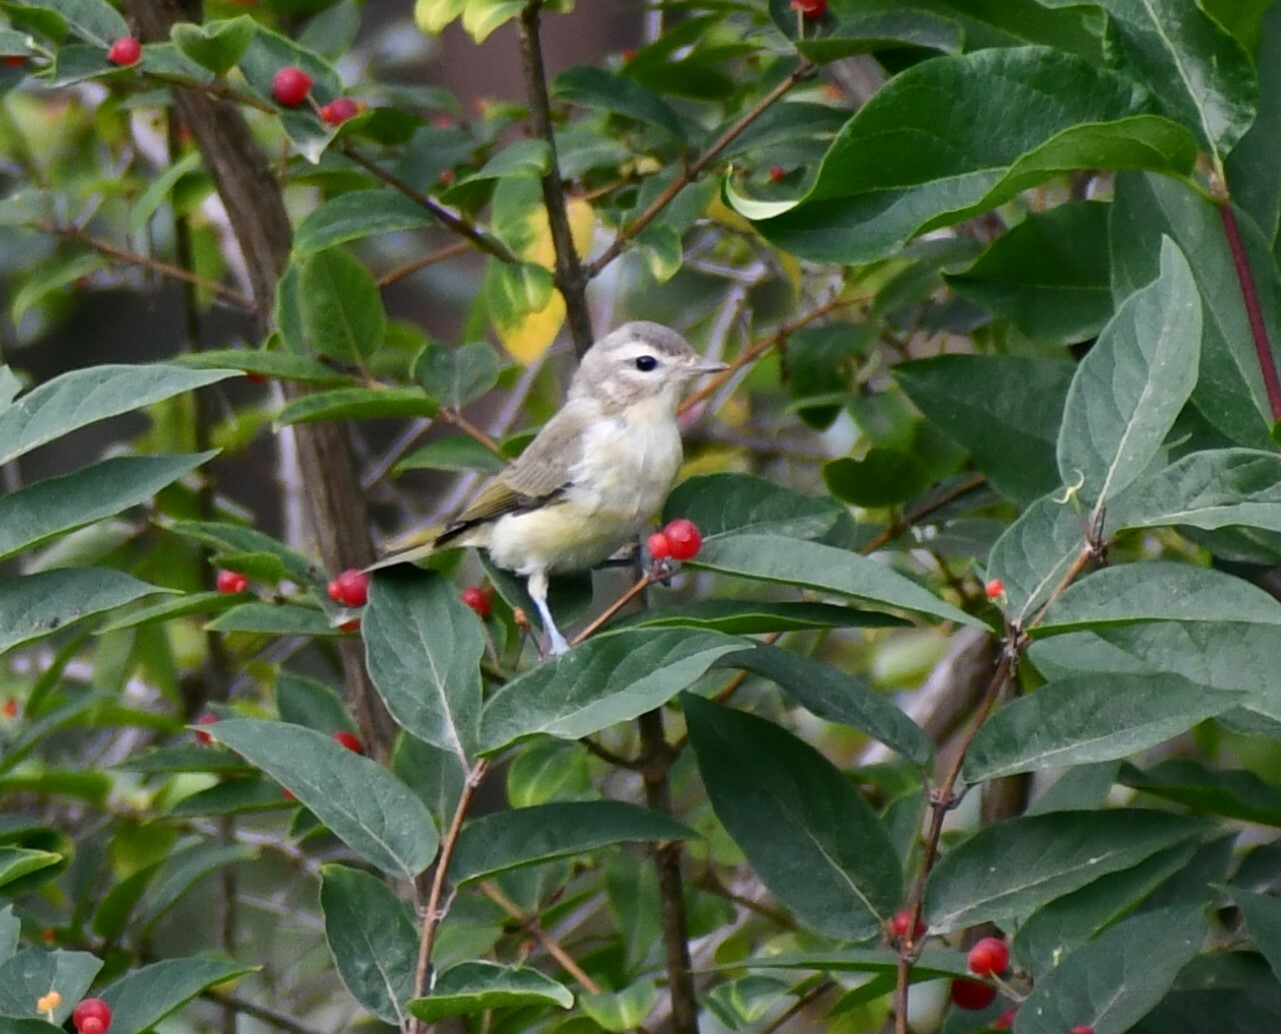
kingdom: Animalia
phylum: Chordata
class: Aves
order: Passeriformes
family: Vireonidae
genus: Vireo
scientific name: Vireo gilvus
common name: Warbling vireo
